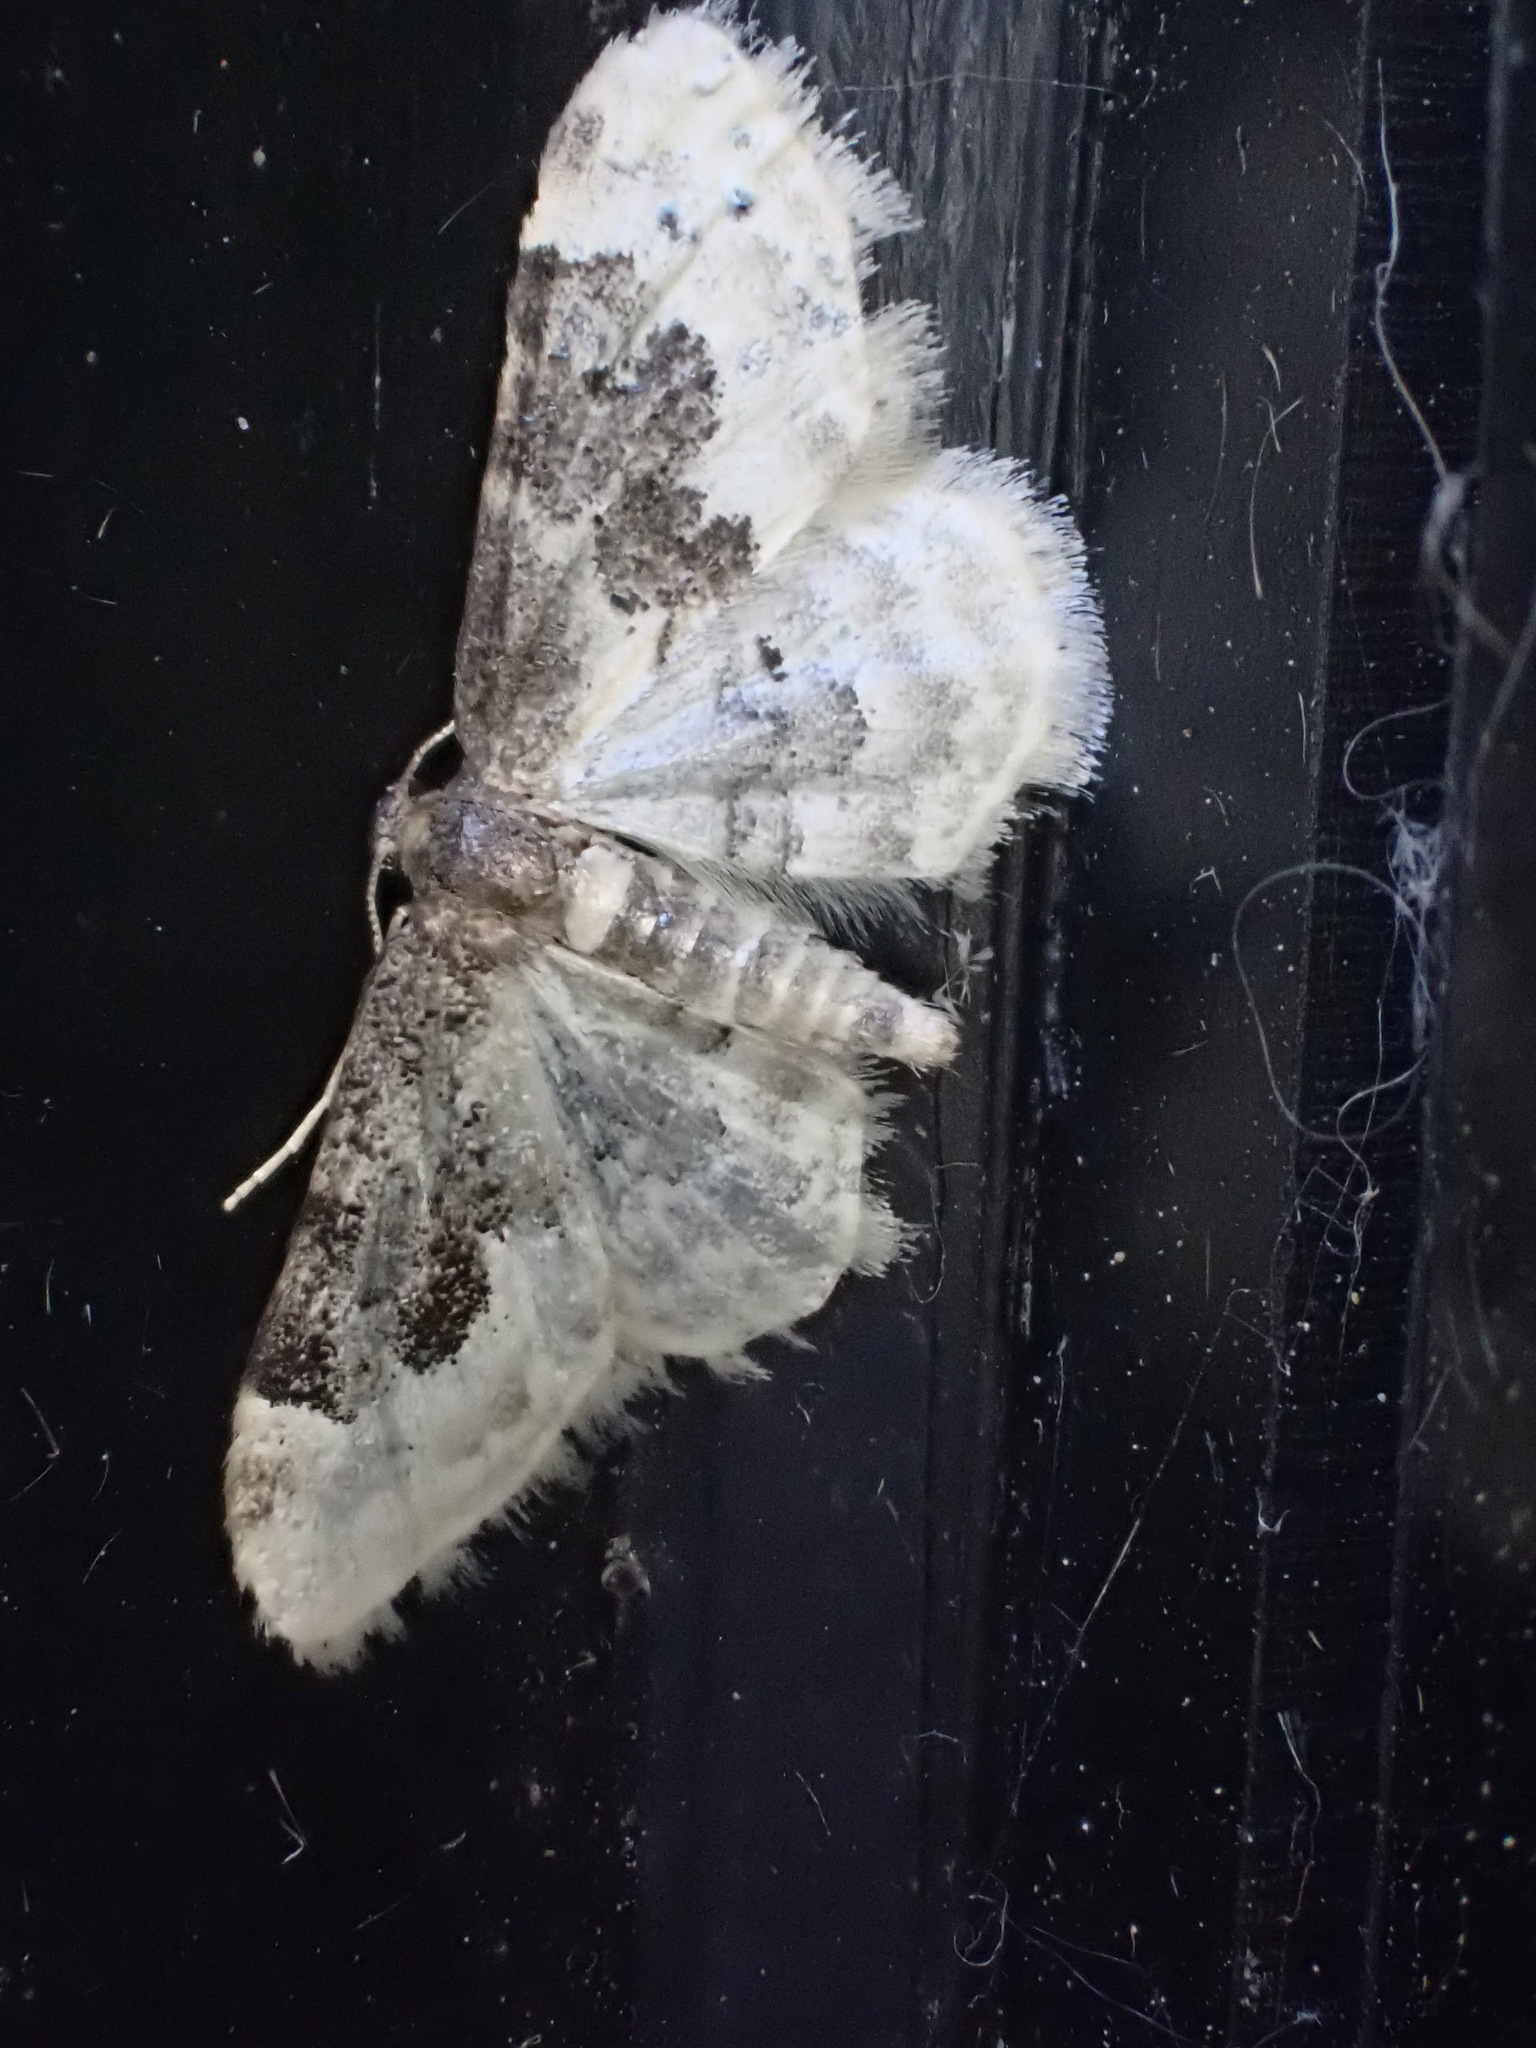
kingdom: Animalia
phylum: Arthropoda
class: Insecta
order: Lepidoptera
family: Geometridae
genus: Idaea
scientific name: Idaea rusticata
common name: Least carpet
